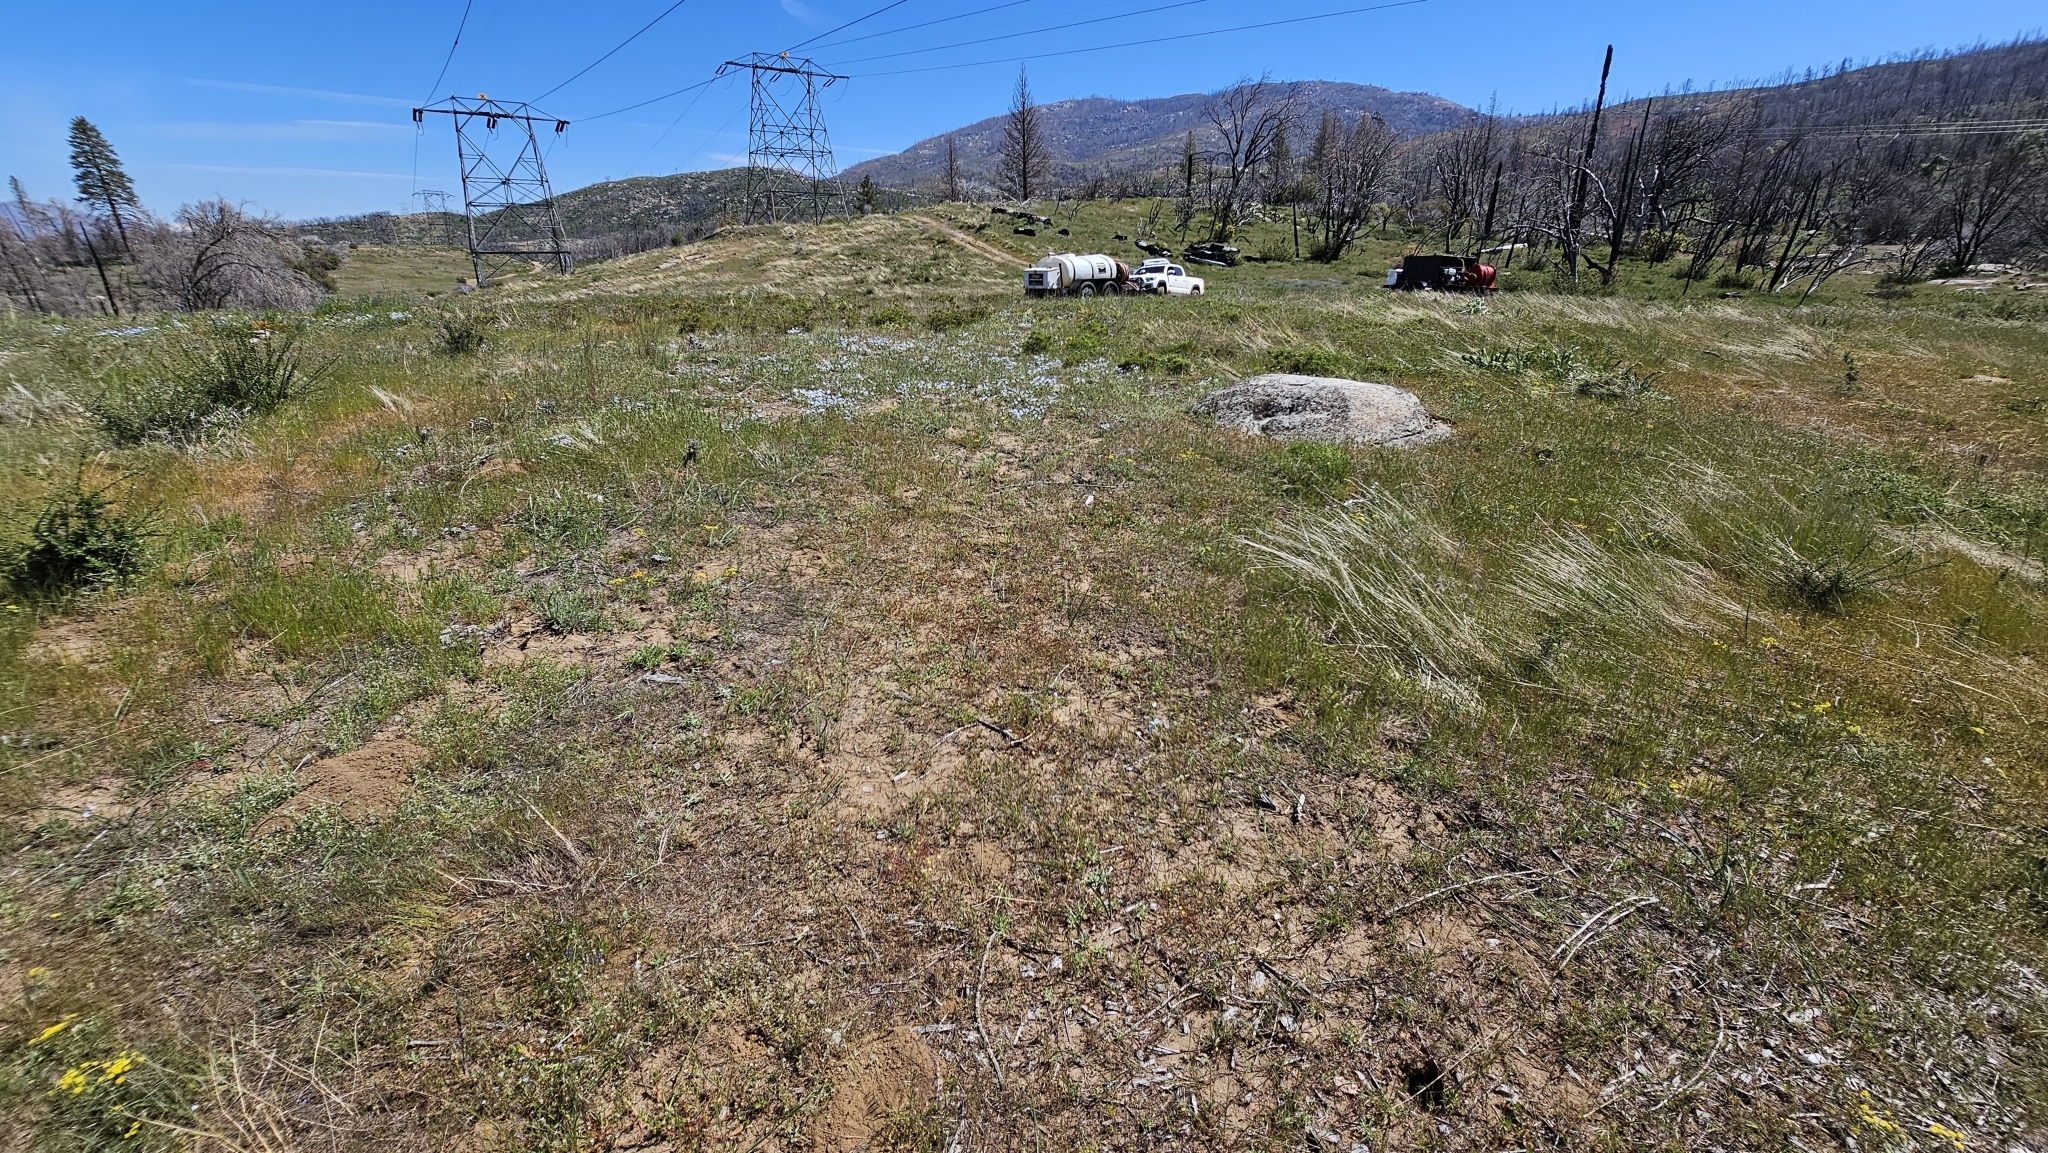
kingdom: Plantae
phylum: Tracheophyta
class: Magnoliopsida
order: Myrtales
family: Onagraceae
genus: Camissonia
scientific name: Camissonia sierrae
